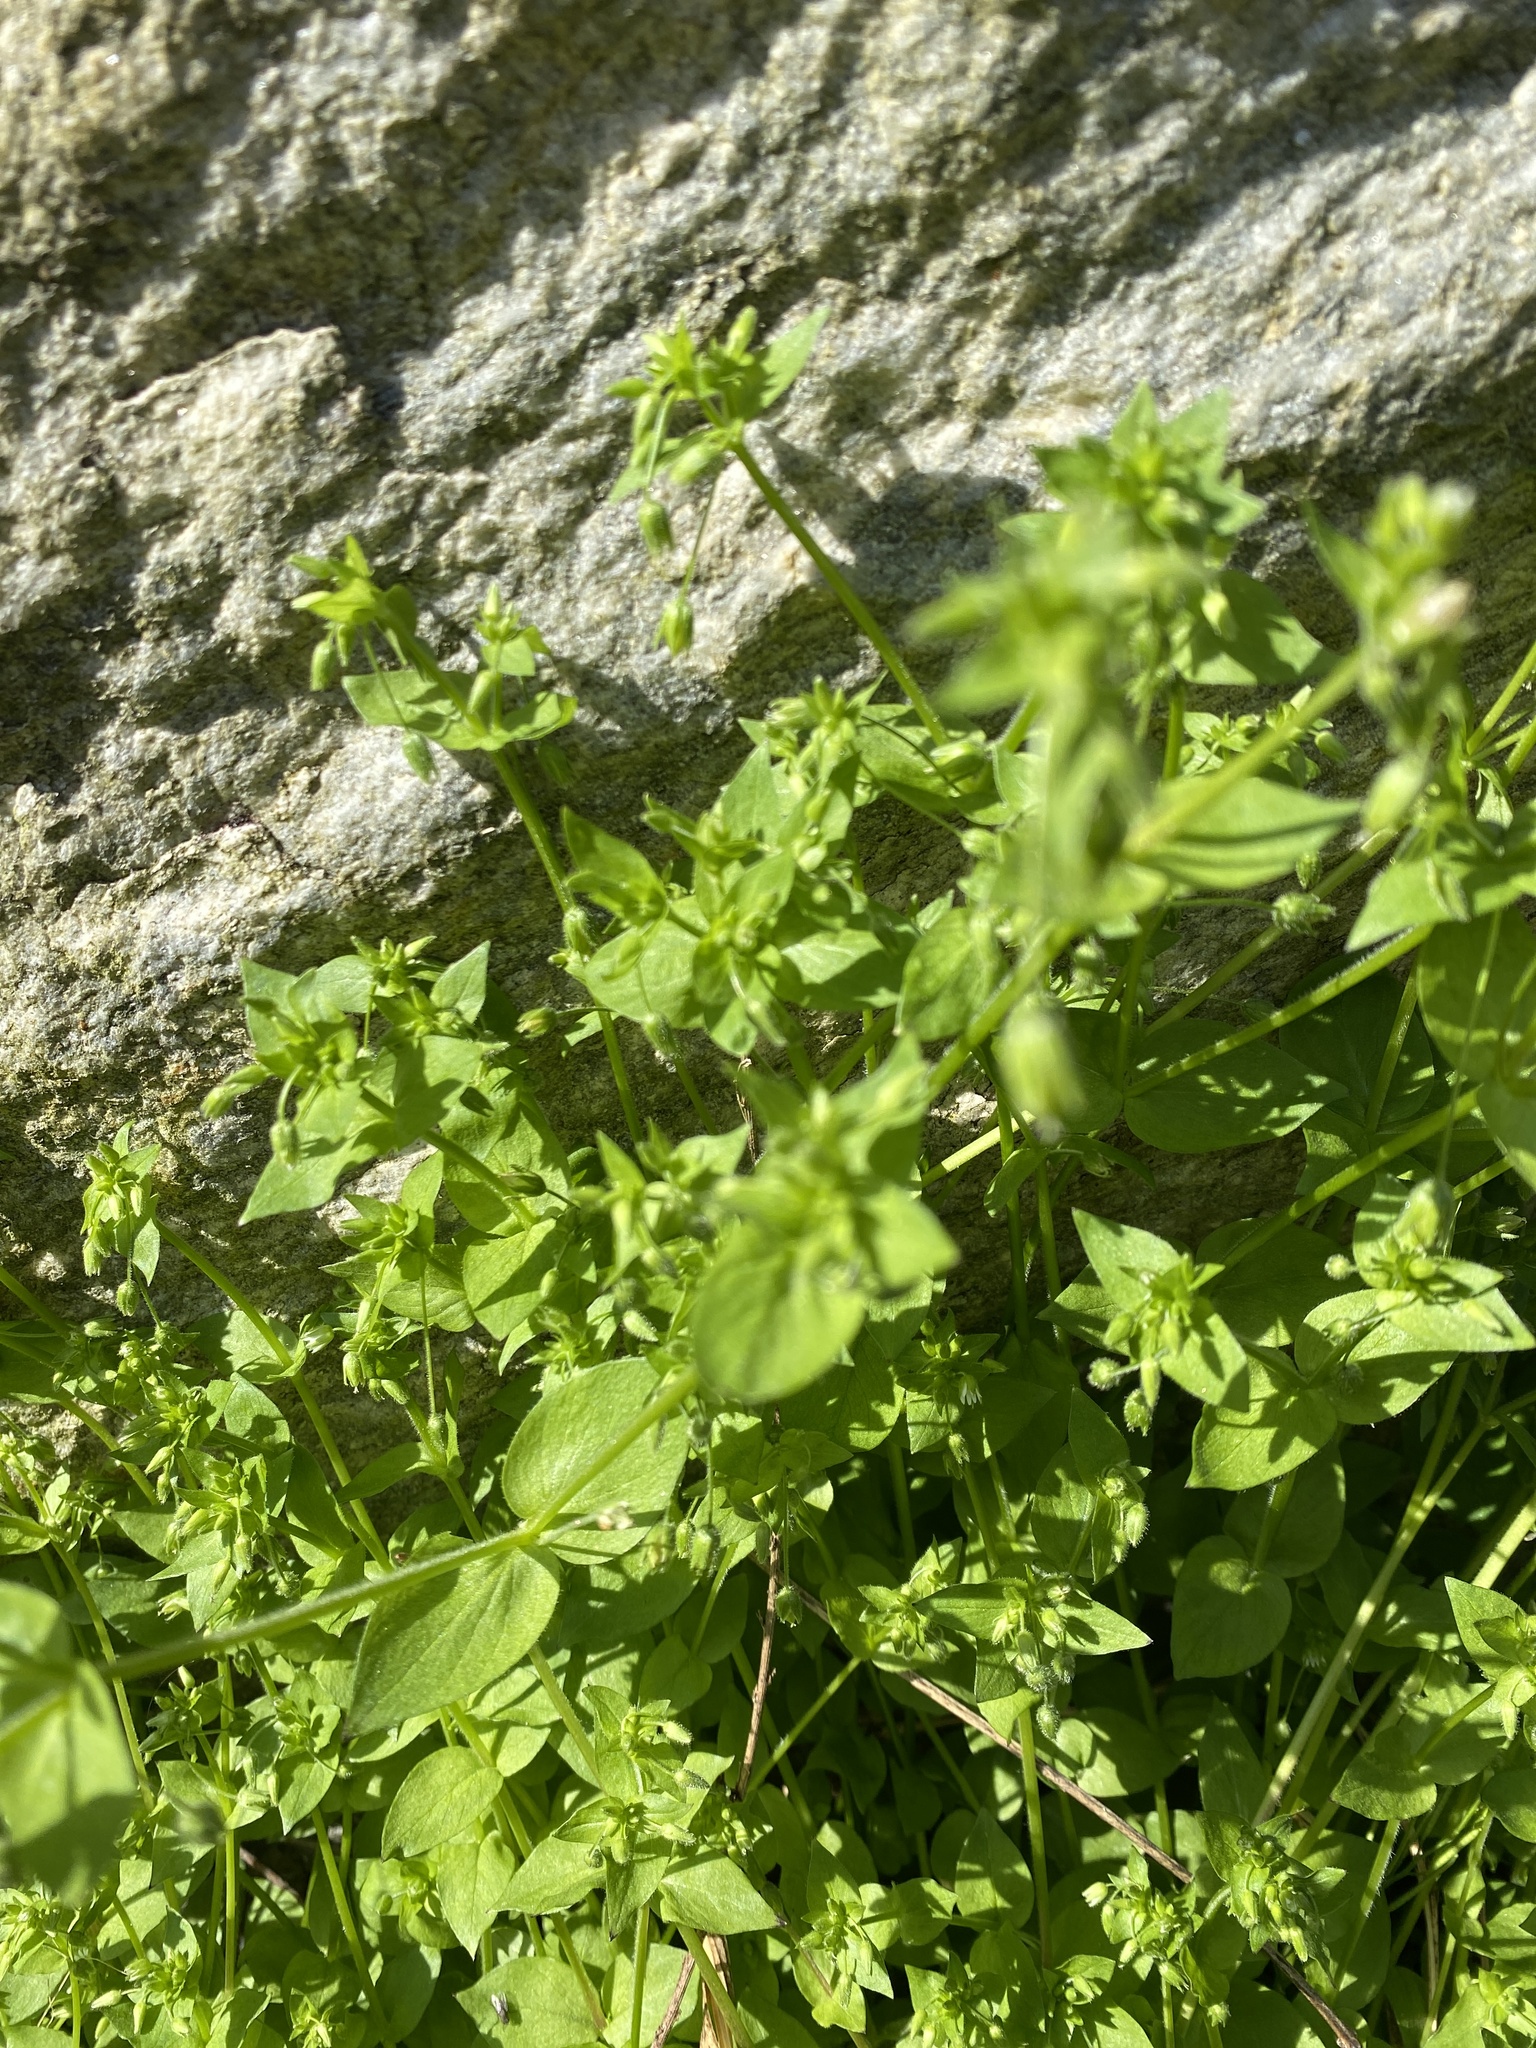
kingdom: Plantae
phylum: Tracheophyta
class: Magnoliopsida
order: Caryophyllales
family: Caryophyllaceae
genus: Stellaria
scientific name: Stellaria media
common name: Common chickweed
